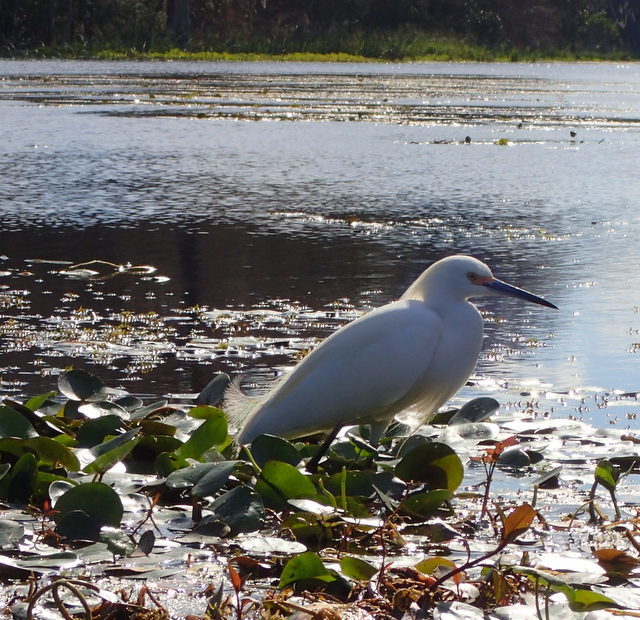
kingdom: Animalia
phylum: Chordata
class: Aves
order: Pelecaniformes
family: Ardeidae
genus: Egretta
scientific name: Egretta thula
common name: Snowy egret
